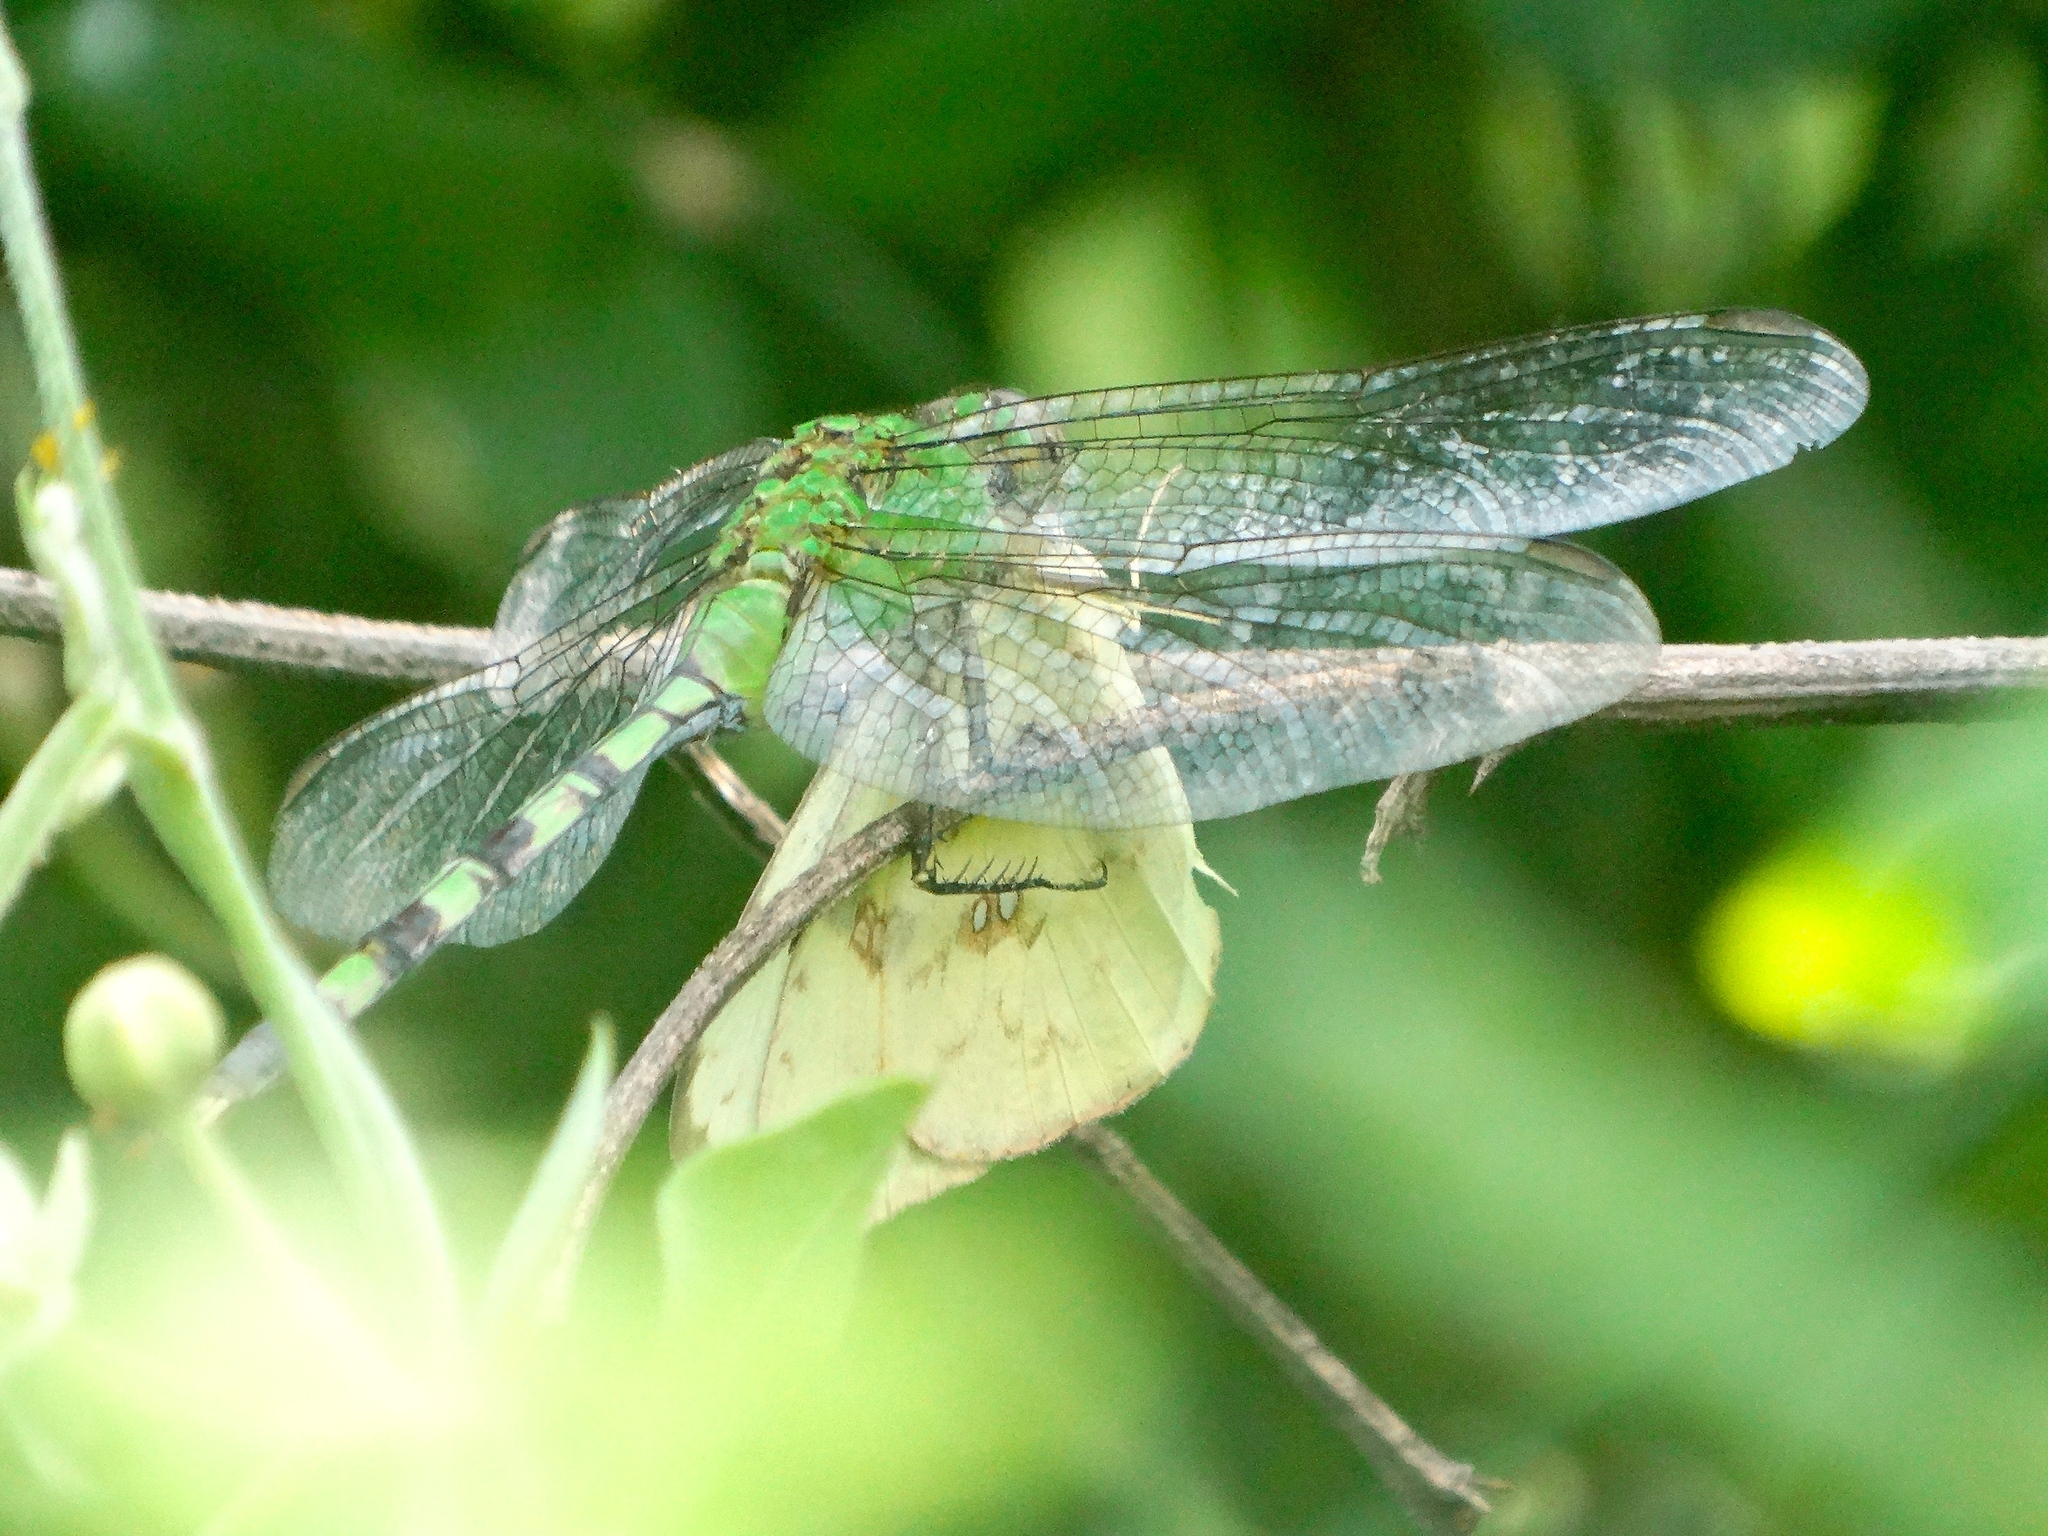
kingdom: Animalia
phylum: Arthropoda
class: Insecta
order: Odonata
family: Libellulidae
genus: Erythemis
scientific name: Erythemis vesiculosa
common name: Great pondhawk
